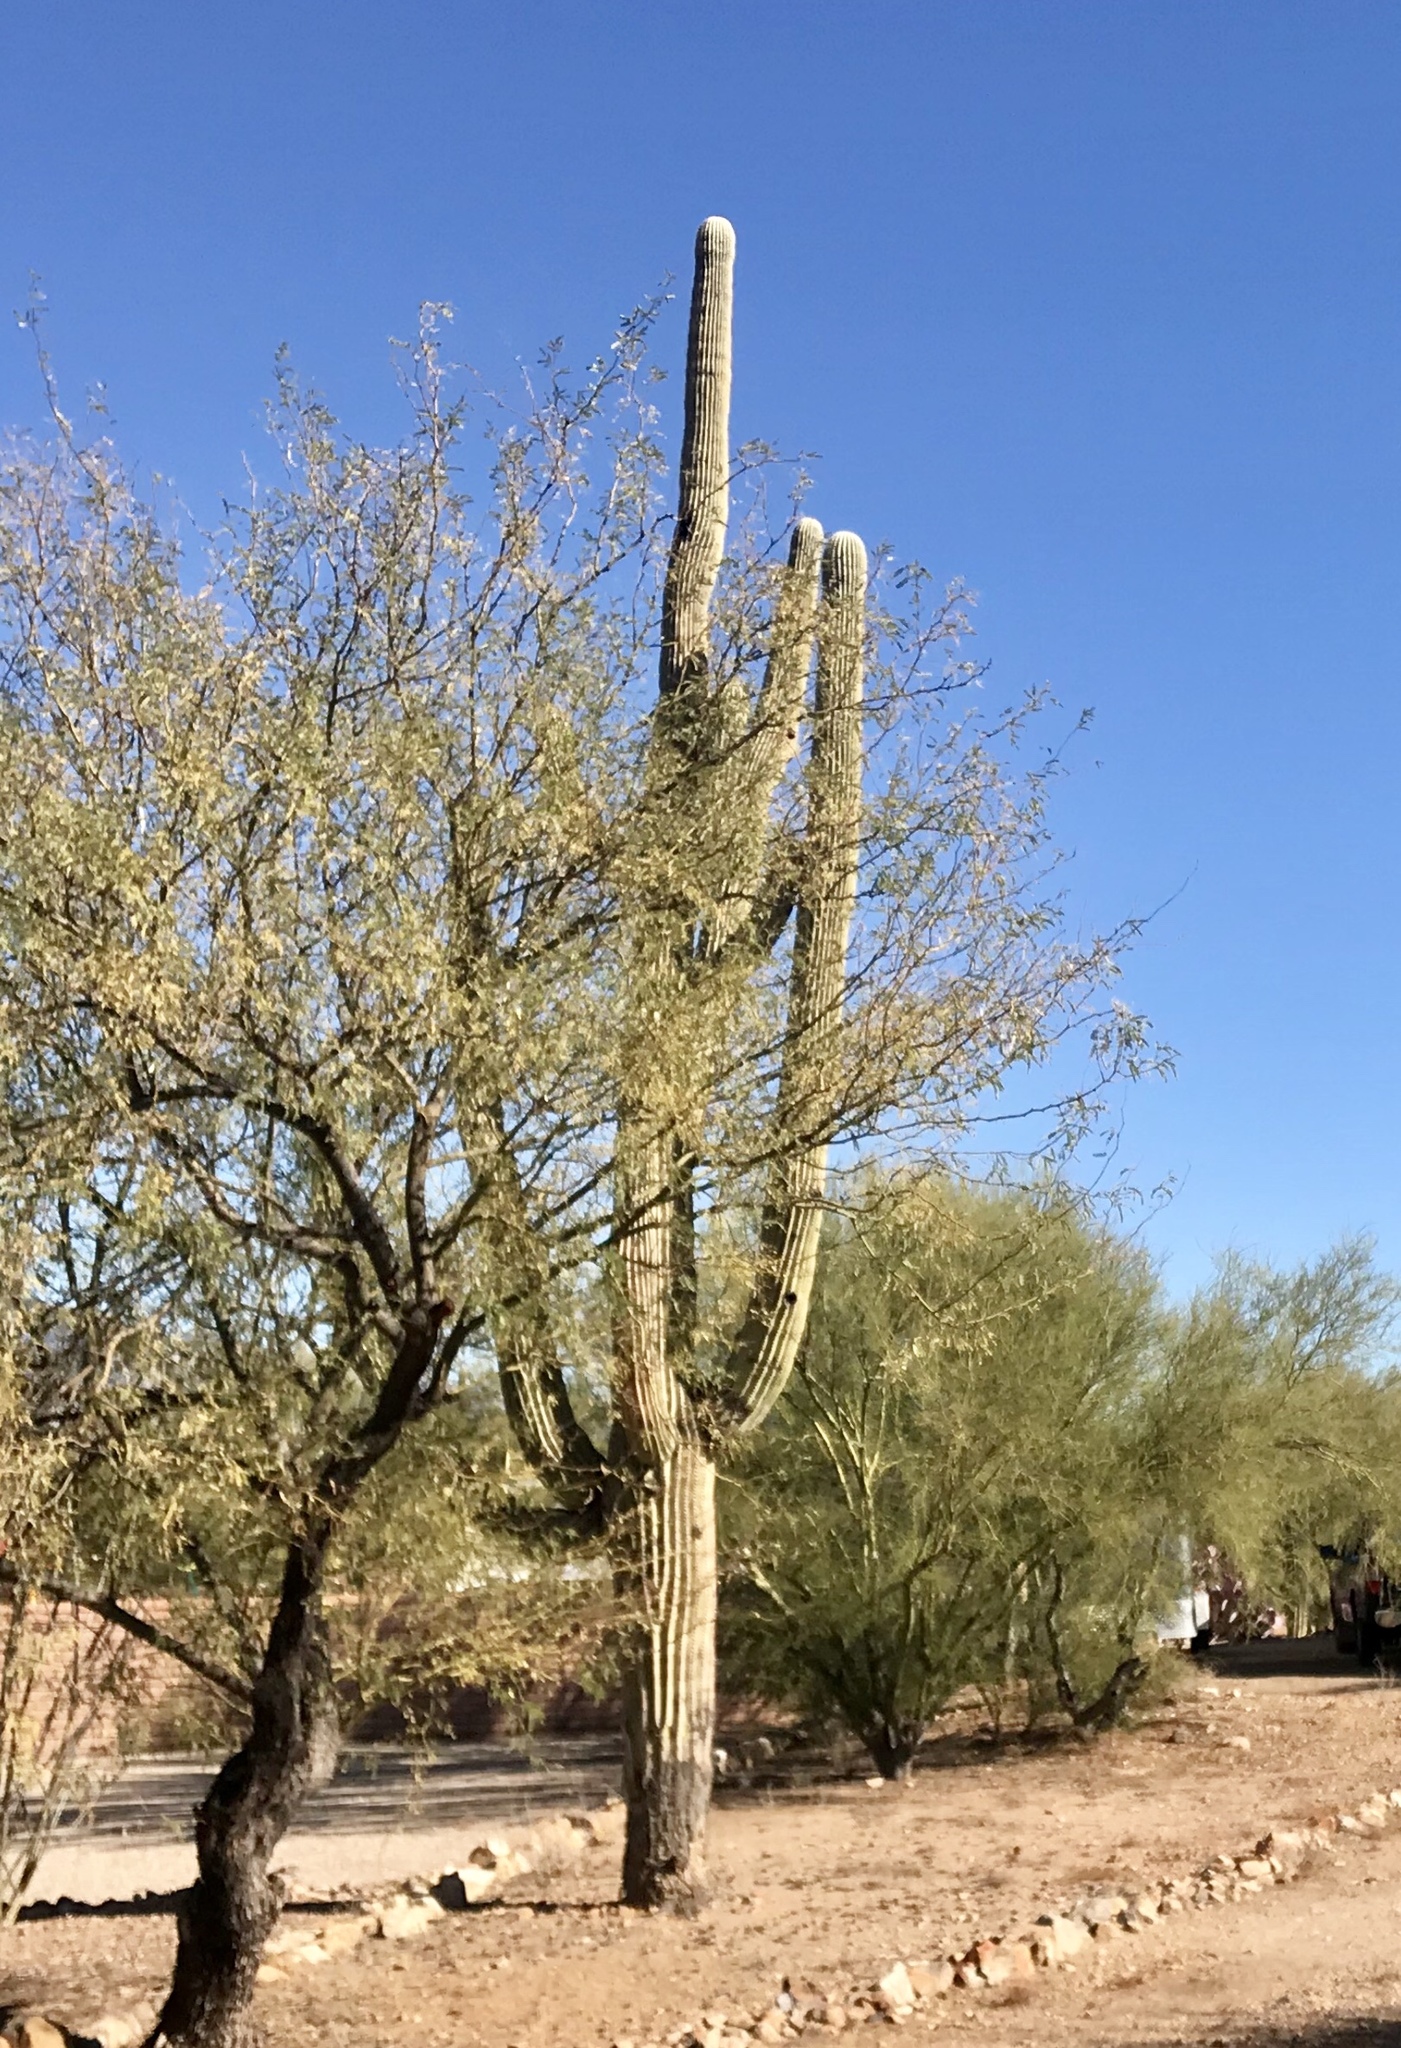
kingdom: Plantae
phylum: Tracheophyta
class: Magnoliopsida
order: Caryophyllales
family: Cactaceae
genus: Carnegiea
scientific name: Carnegiea gigantea
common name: Saguaro
